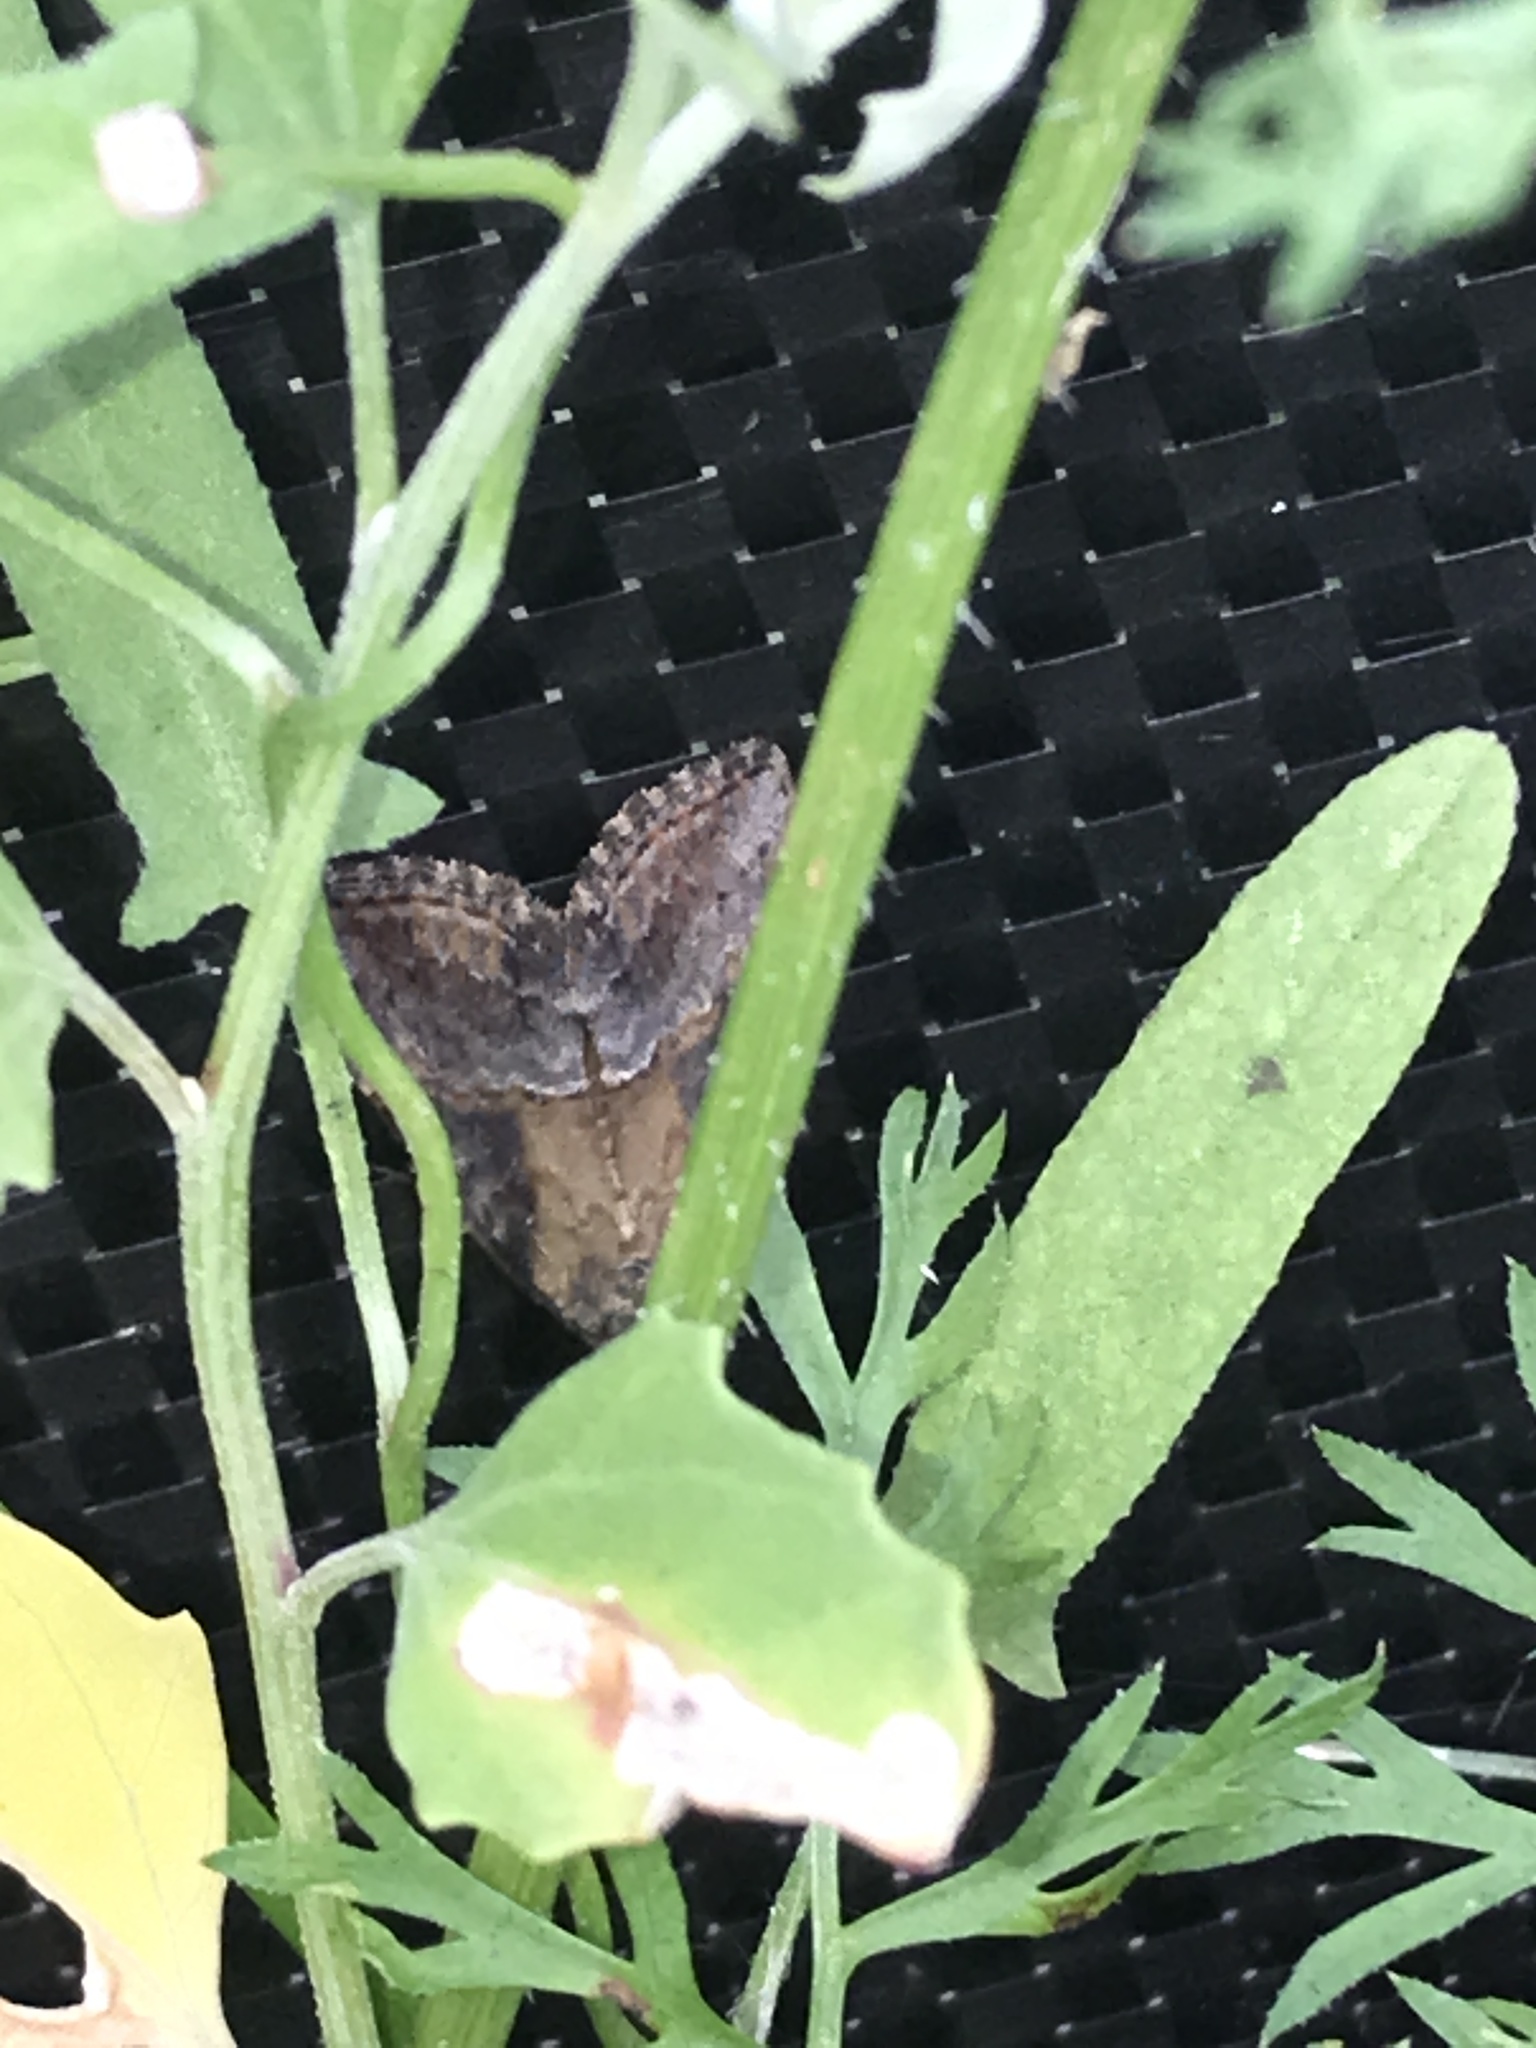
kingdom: Animalia
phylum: Arthropoda
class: Insecta
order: Lepidoptera
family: Erebidae
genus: Hypena
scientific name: Hypena scabra
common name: Green cloverworm
